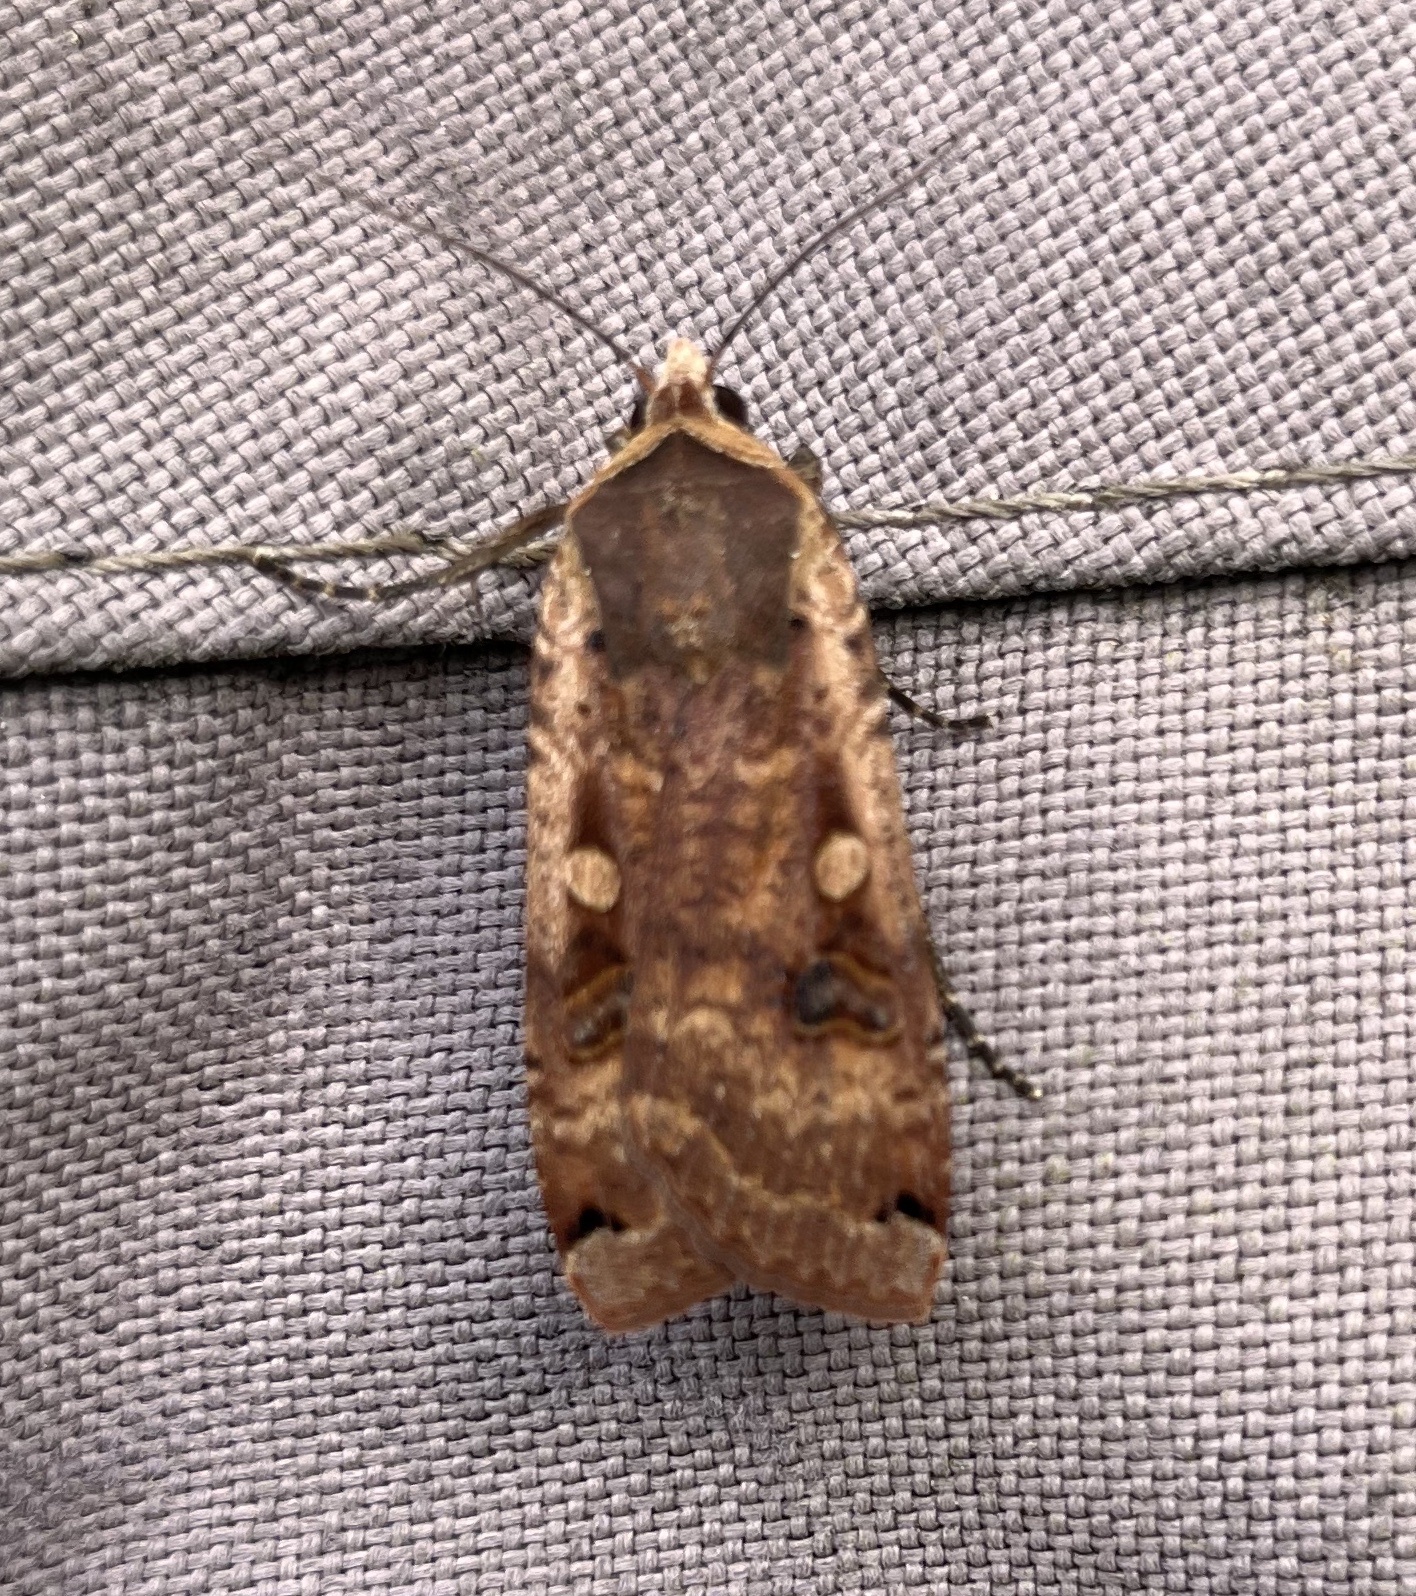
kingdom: Animalia
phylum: Arthropoda
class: Insecta
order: Lepidoptera
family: Noctuidae
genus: Noctua
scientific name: Noctua pronuba
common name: Large yellow underwing
